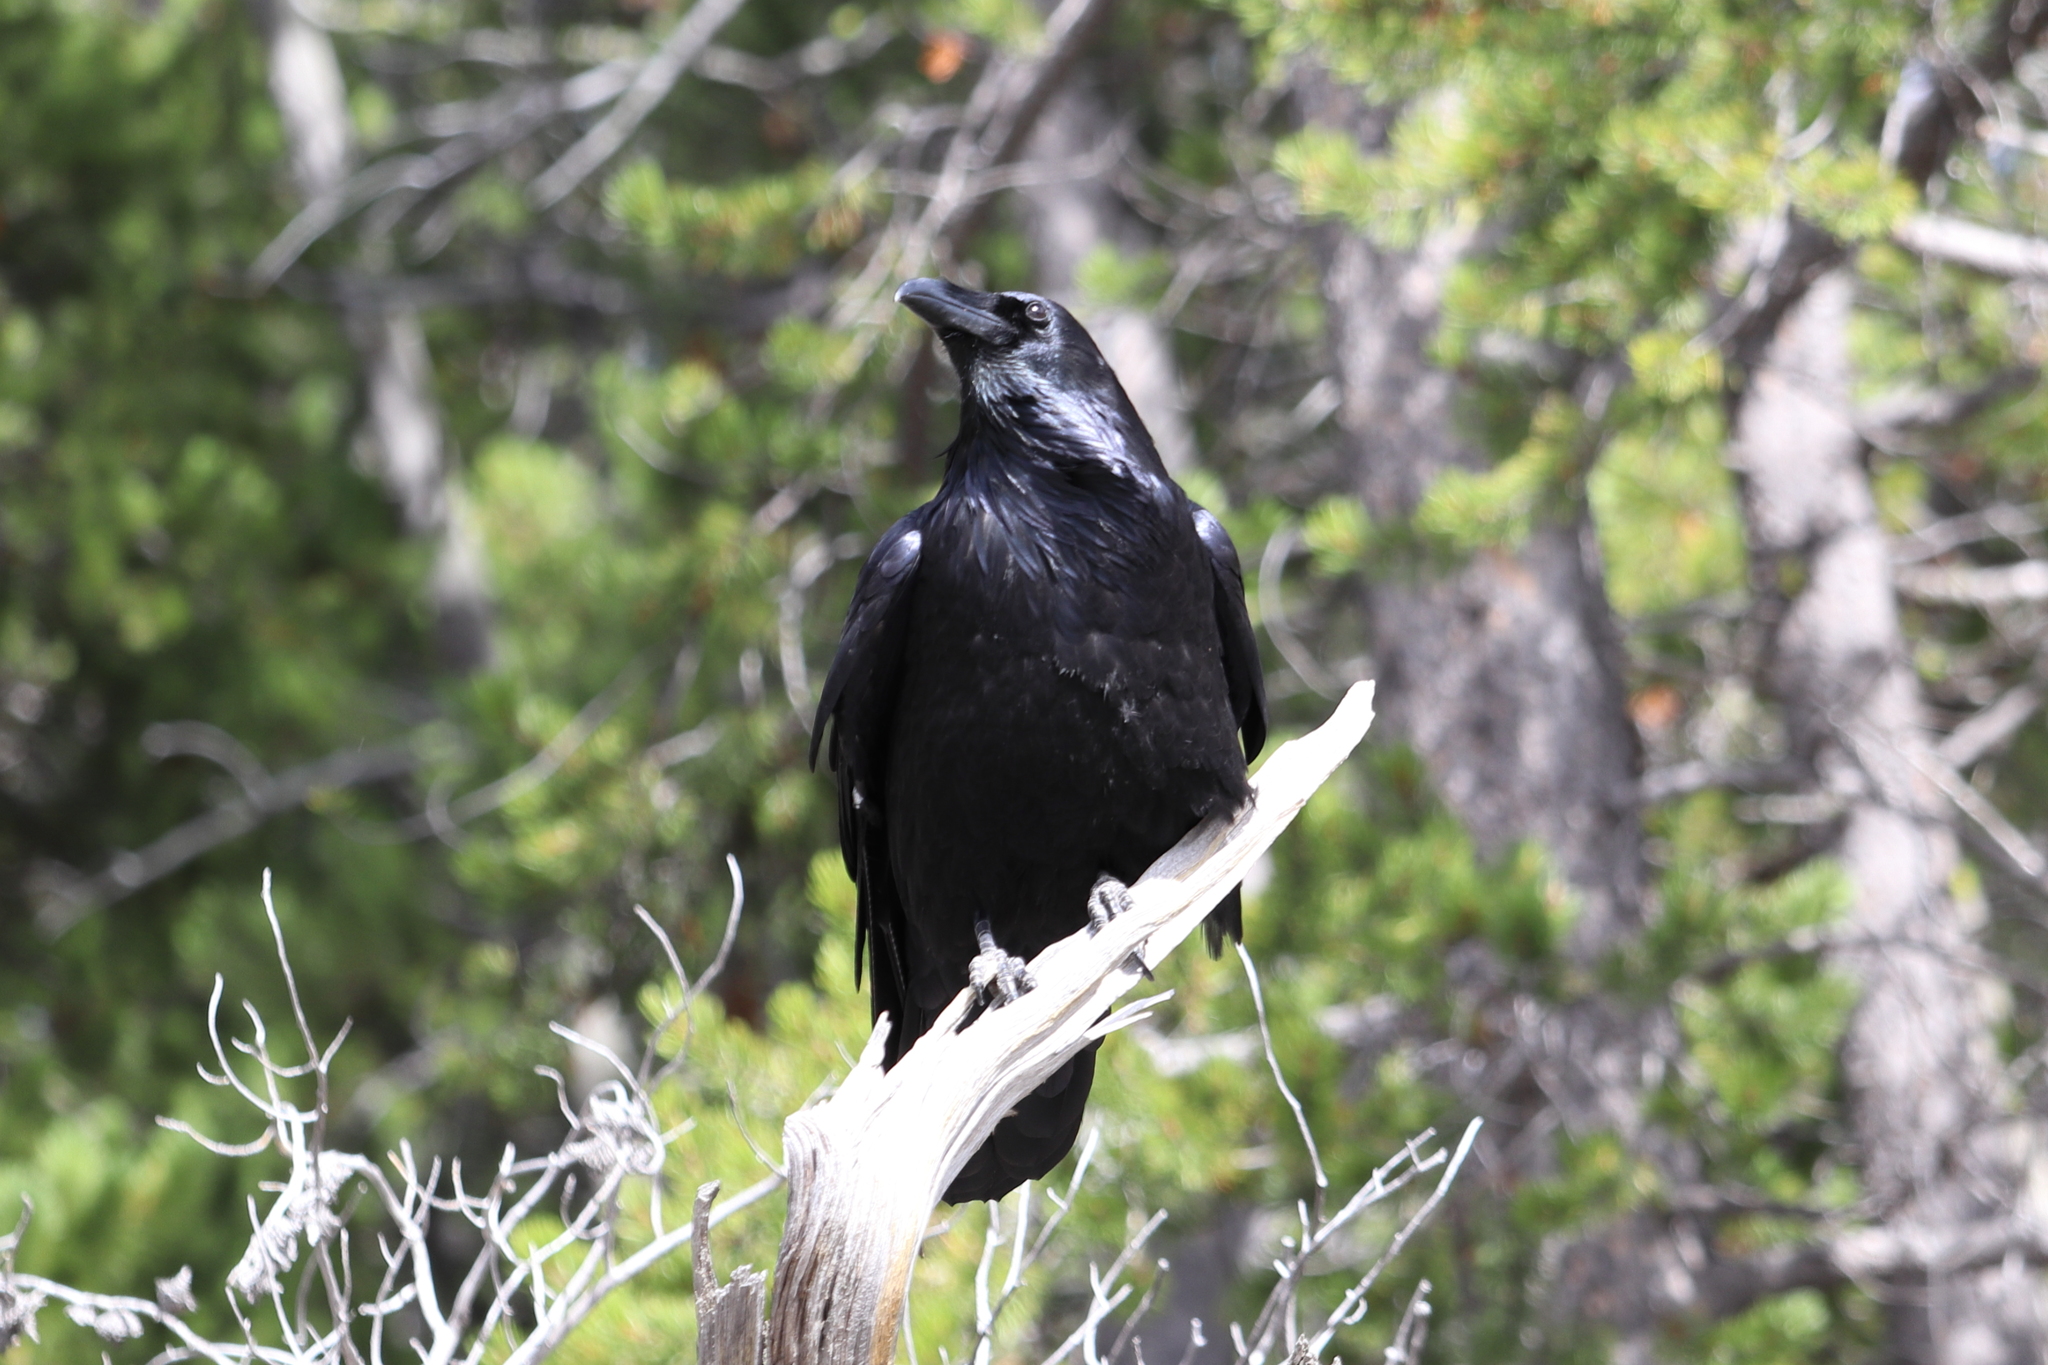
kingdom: Animalia
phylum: Chordata
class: Aves
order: Passeriformes
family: Corvidae
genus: Corvus
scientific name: Corvus corax
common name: Common raven
